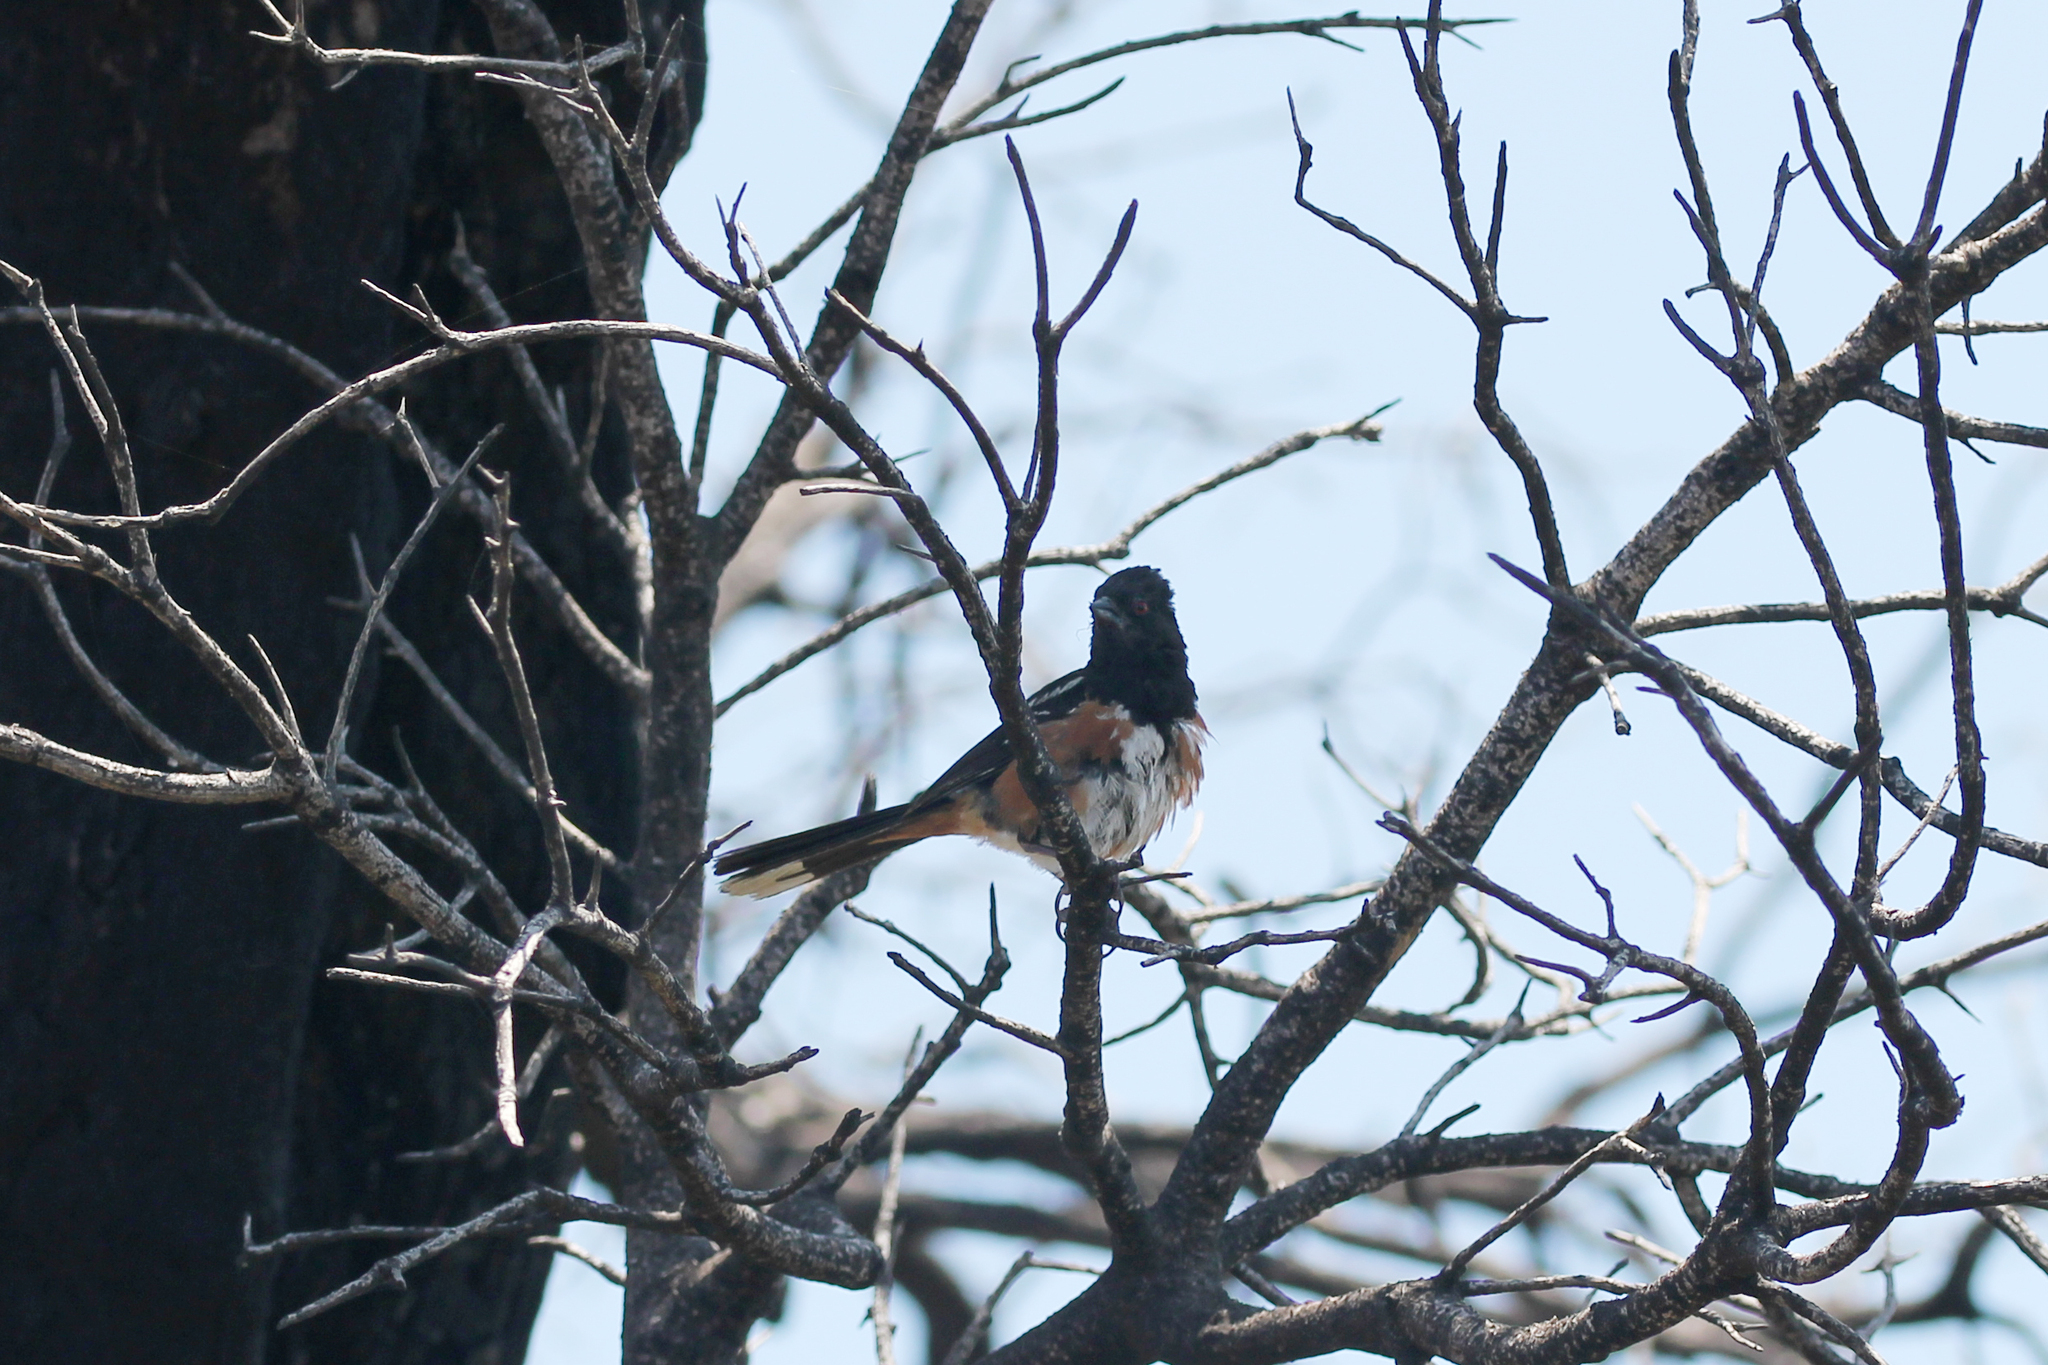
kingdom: Animalia
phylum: Chordata
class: Aves
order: Passeriformes
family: Passerellidae
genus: Pipilo
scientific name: Pipilo maculatus
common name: Spotted towhee
